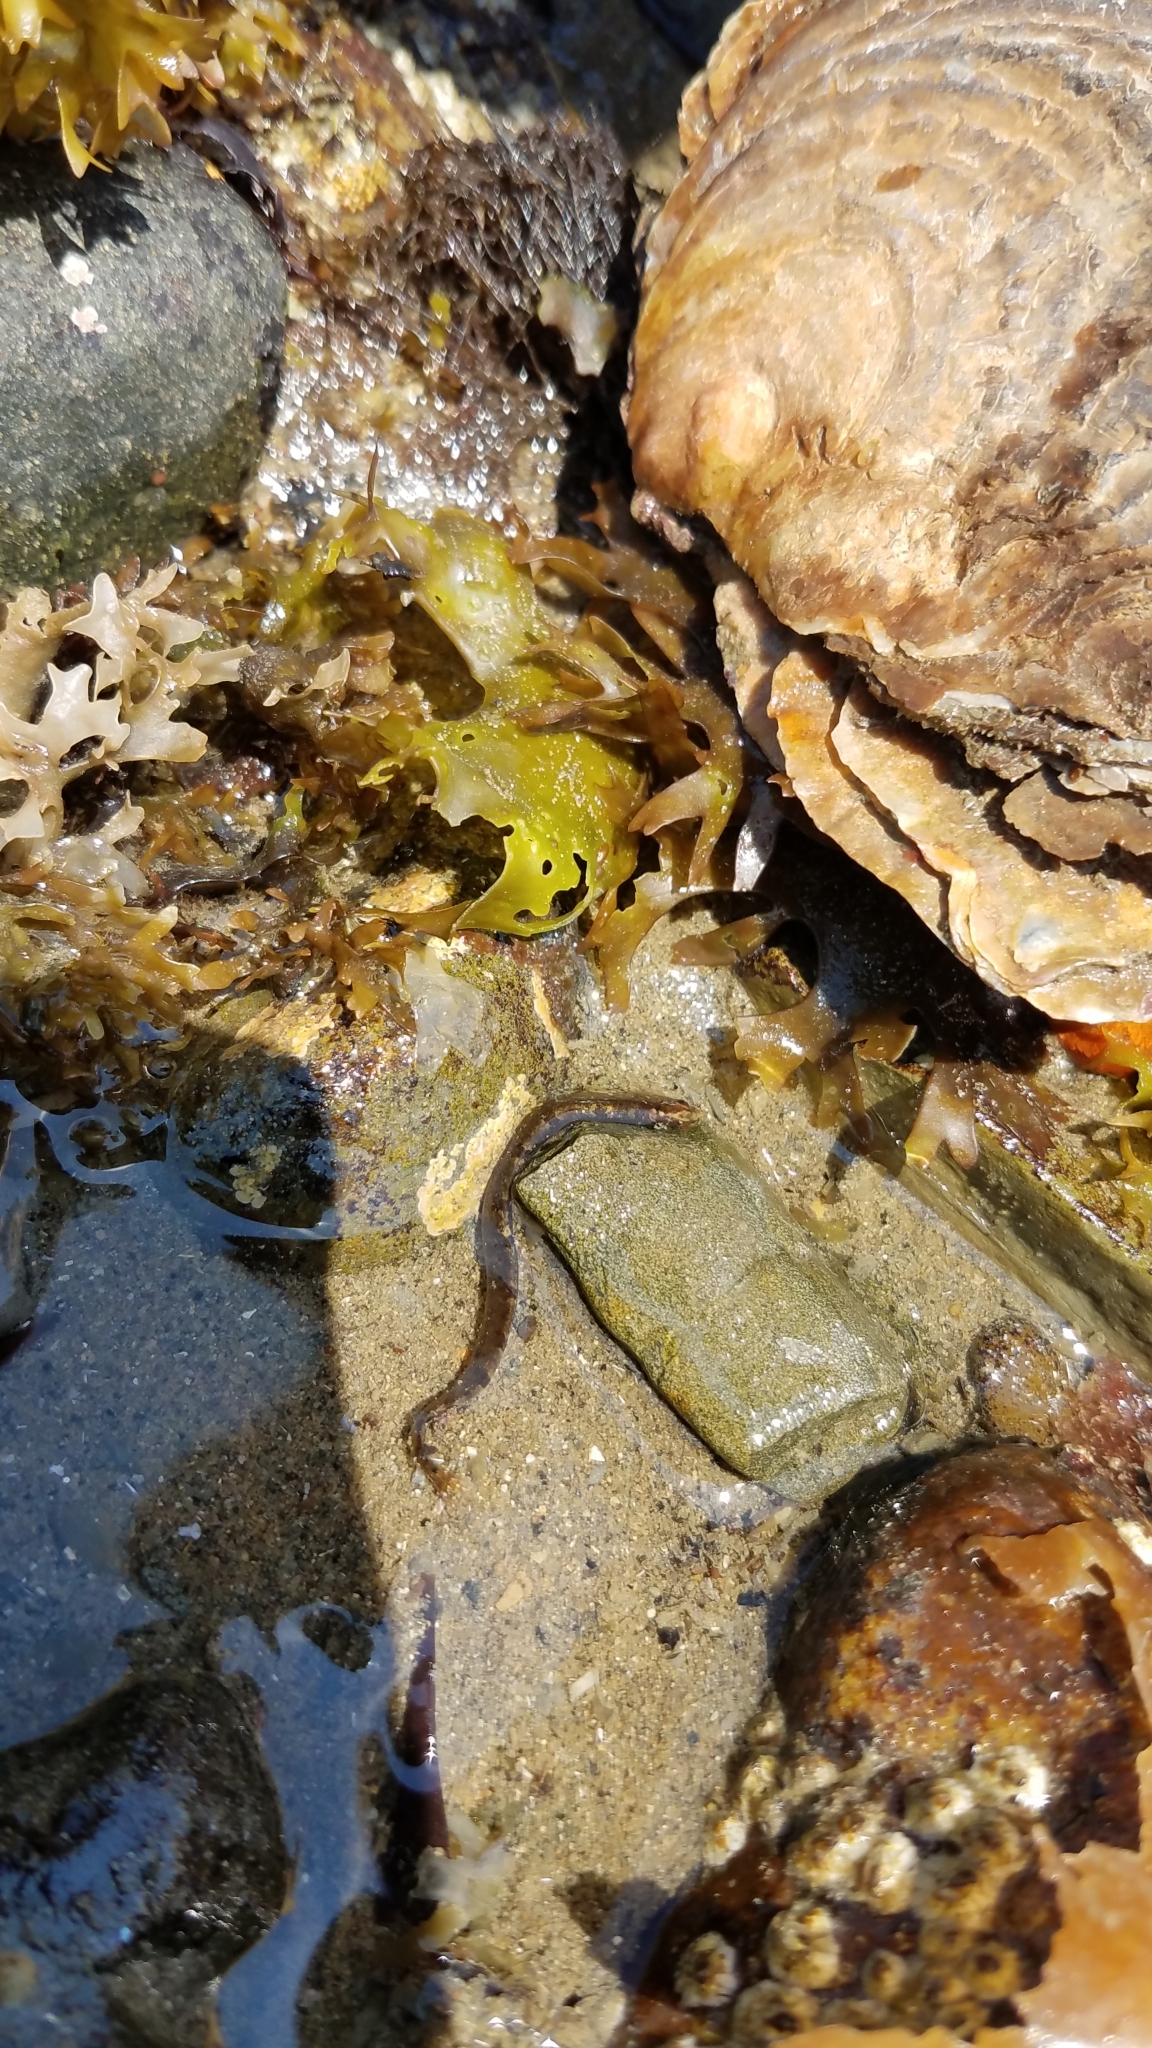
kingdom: Animalia
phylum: Chordata
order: Perciformes
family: Pholidae
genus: Pholis
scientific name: Pholis gunnellus
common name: Butterfish
